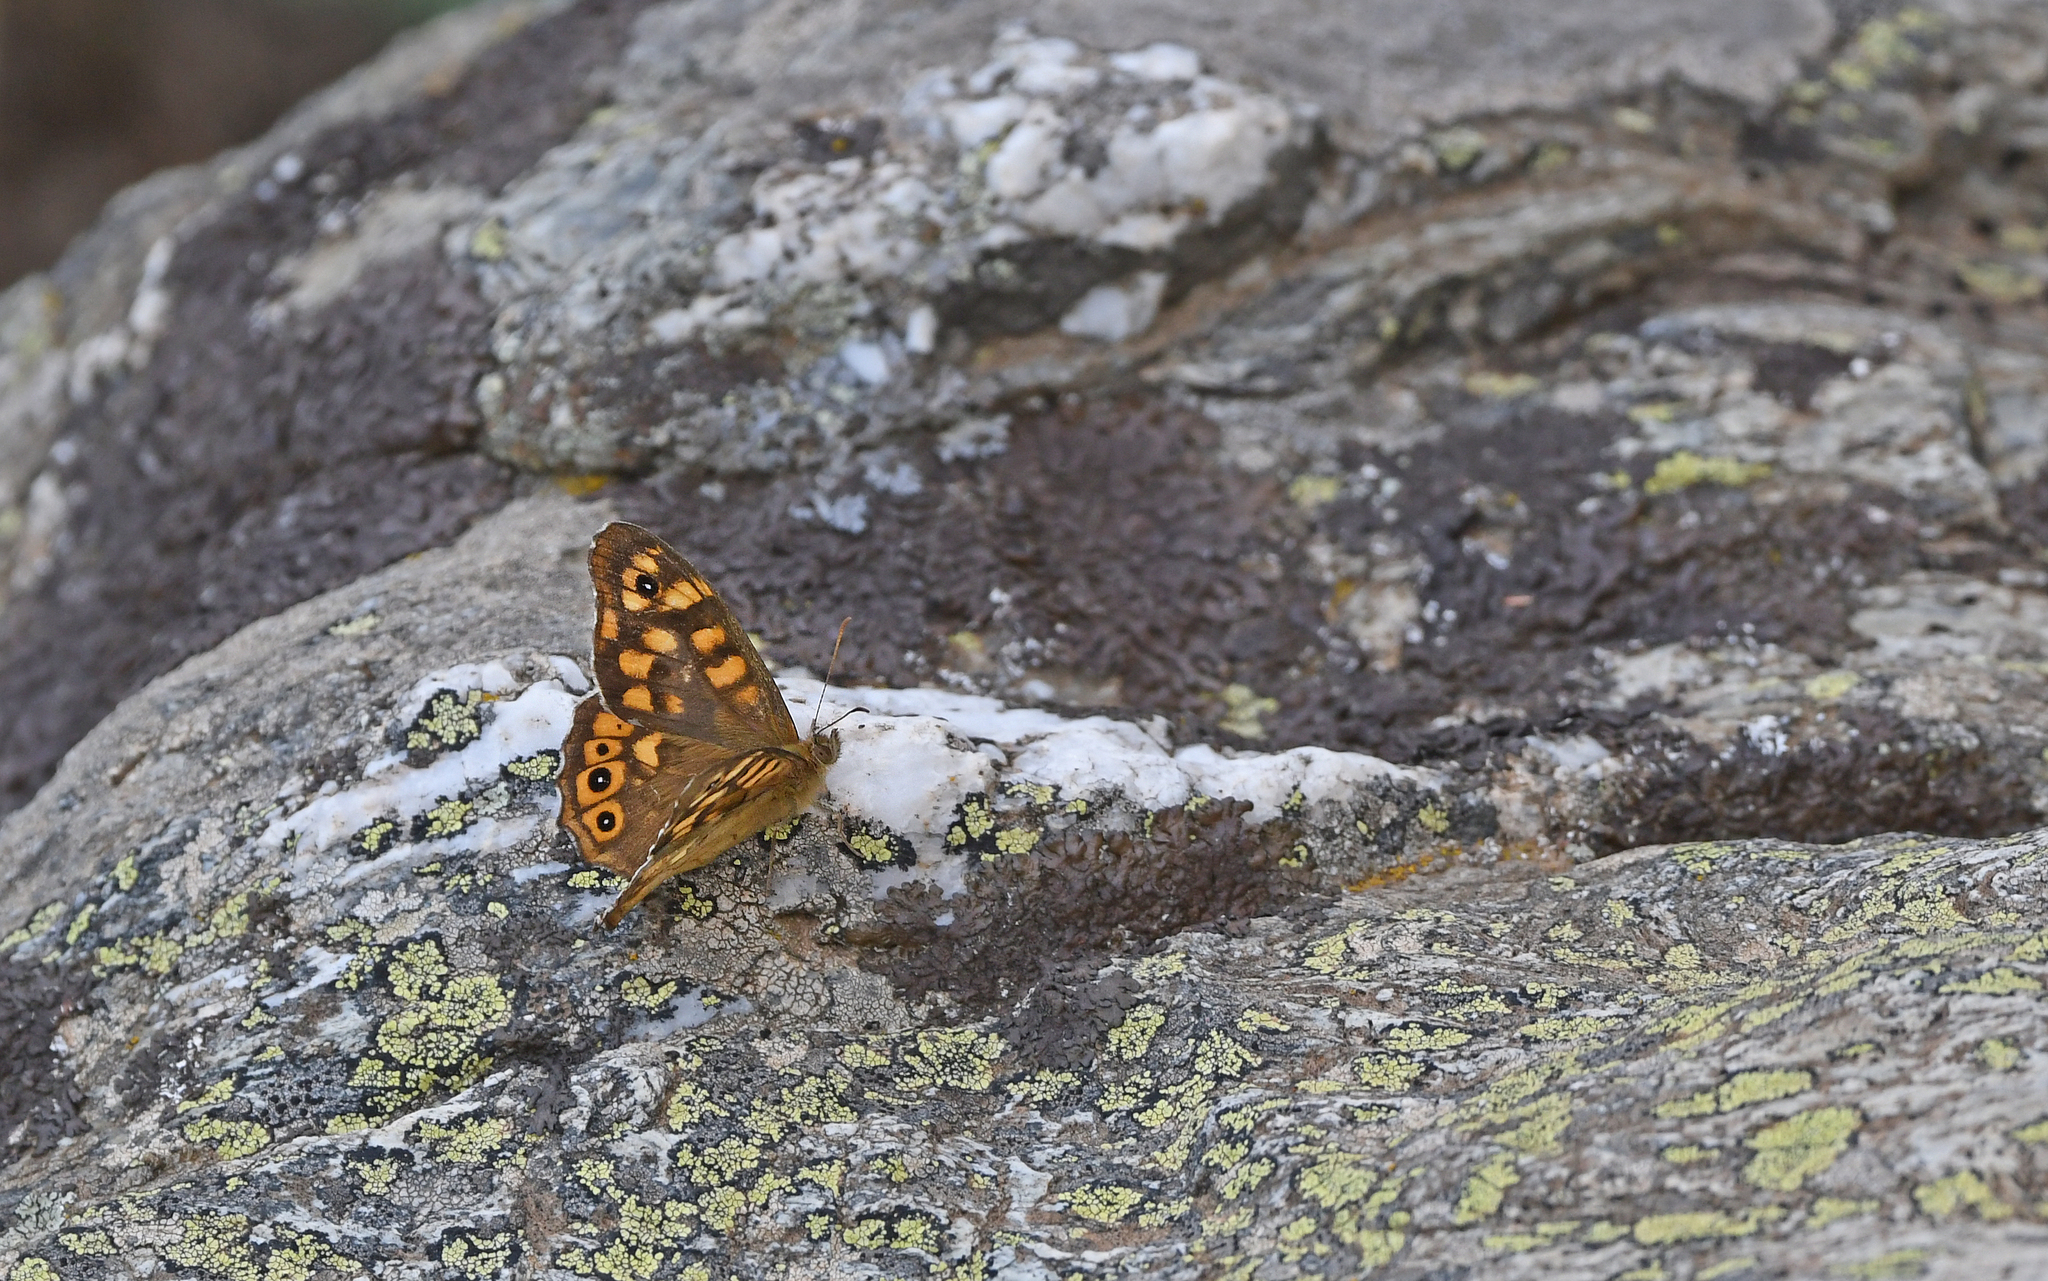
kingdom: Animalia
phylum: Arthropoda
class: Insecta
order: Lepidoptera
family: Nymphalidae
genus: Pararge
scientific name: Pararge aegeria
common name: Speckled wood
